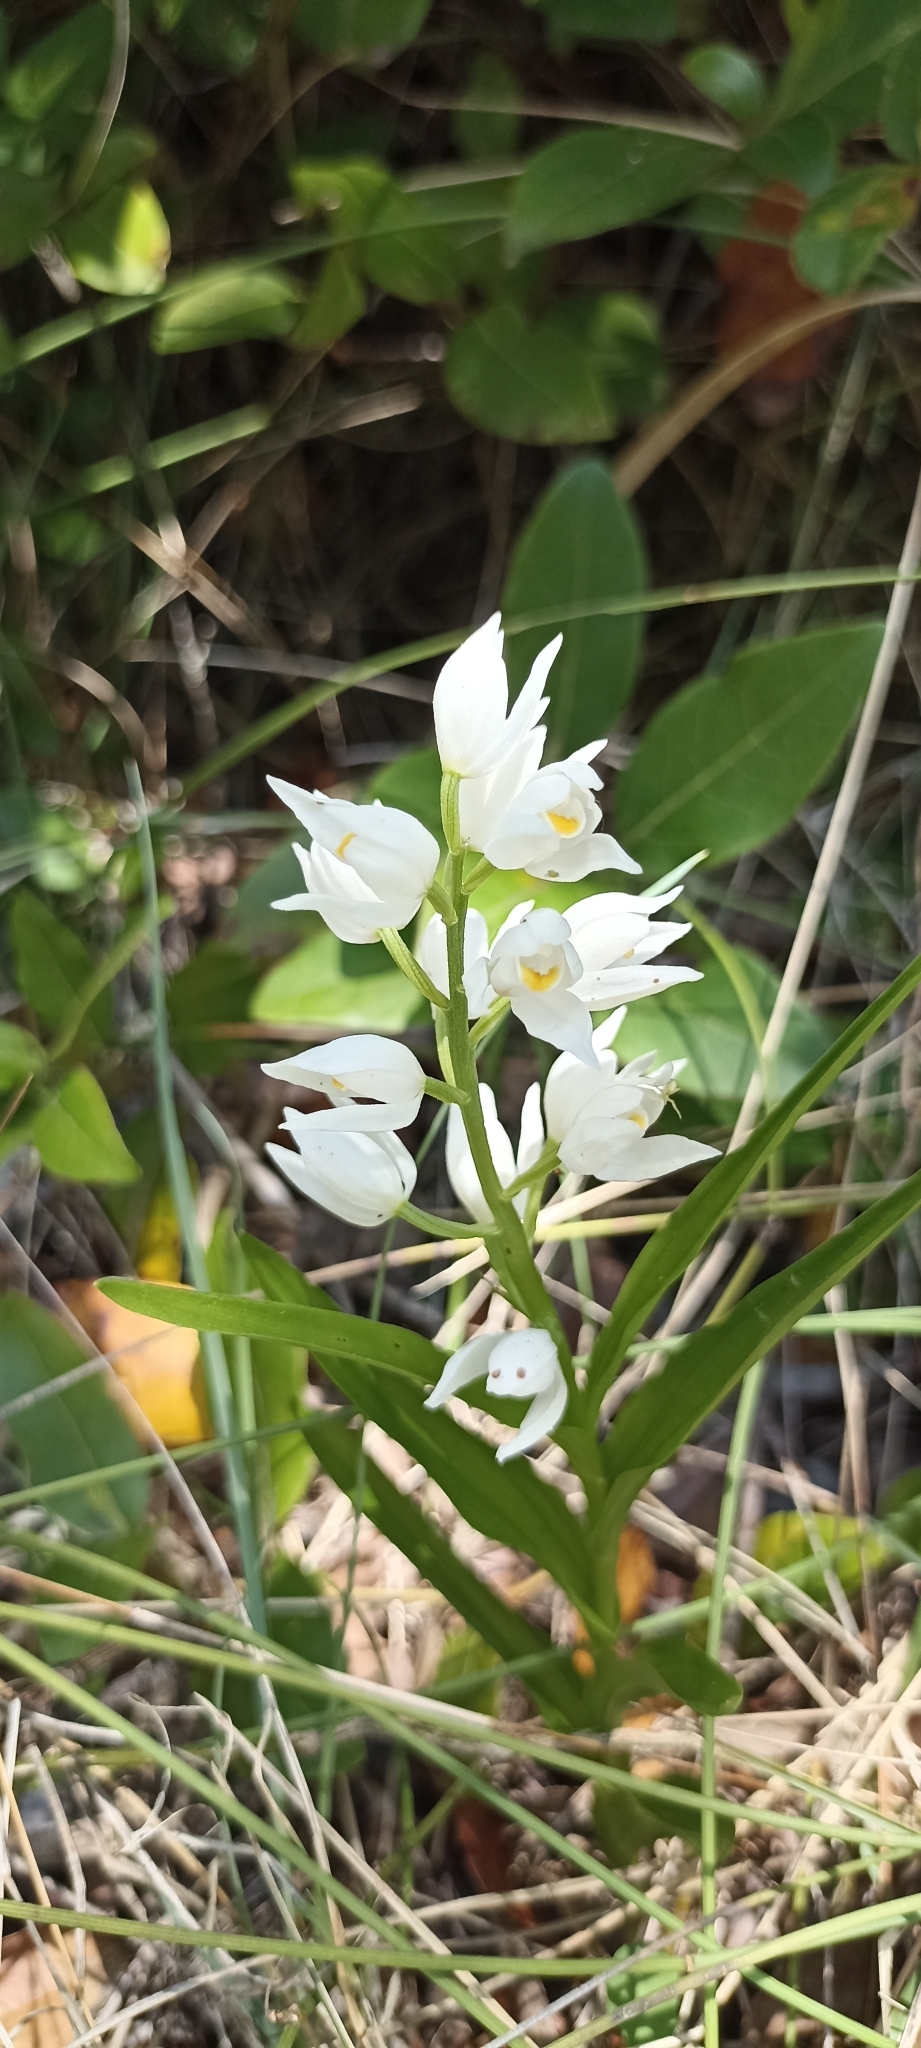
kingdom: Plantae
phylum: Tracheophyta
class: Liliopsida
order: Asparagales
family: Orchidaceae
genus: Cephalanthera
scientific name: Cephalanthera longifolia
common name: Narrow-leaved helleborine
